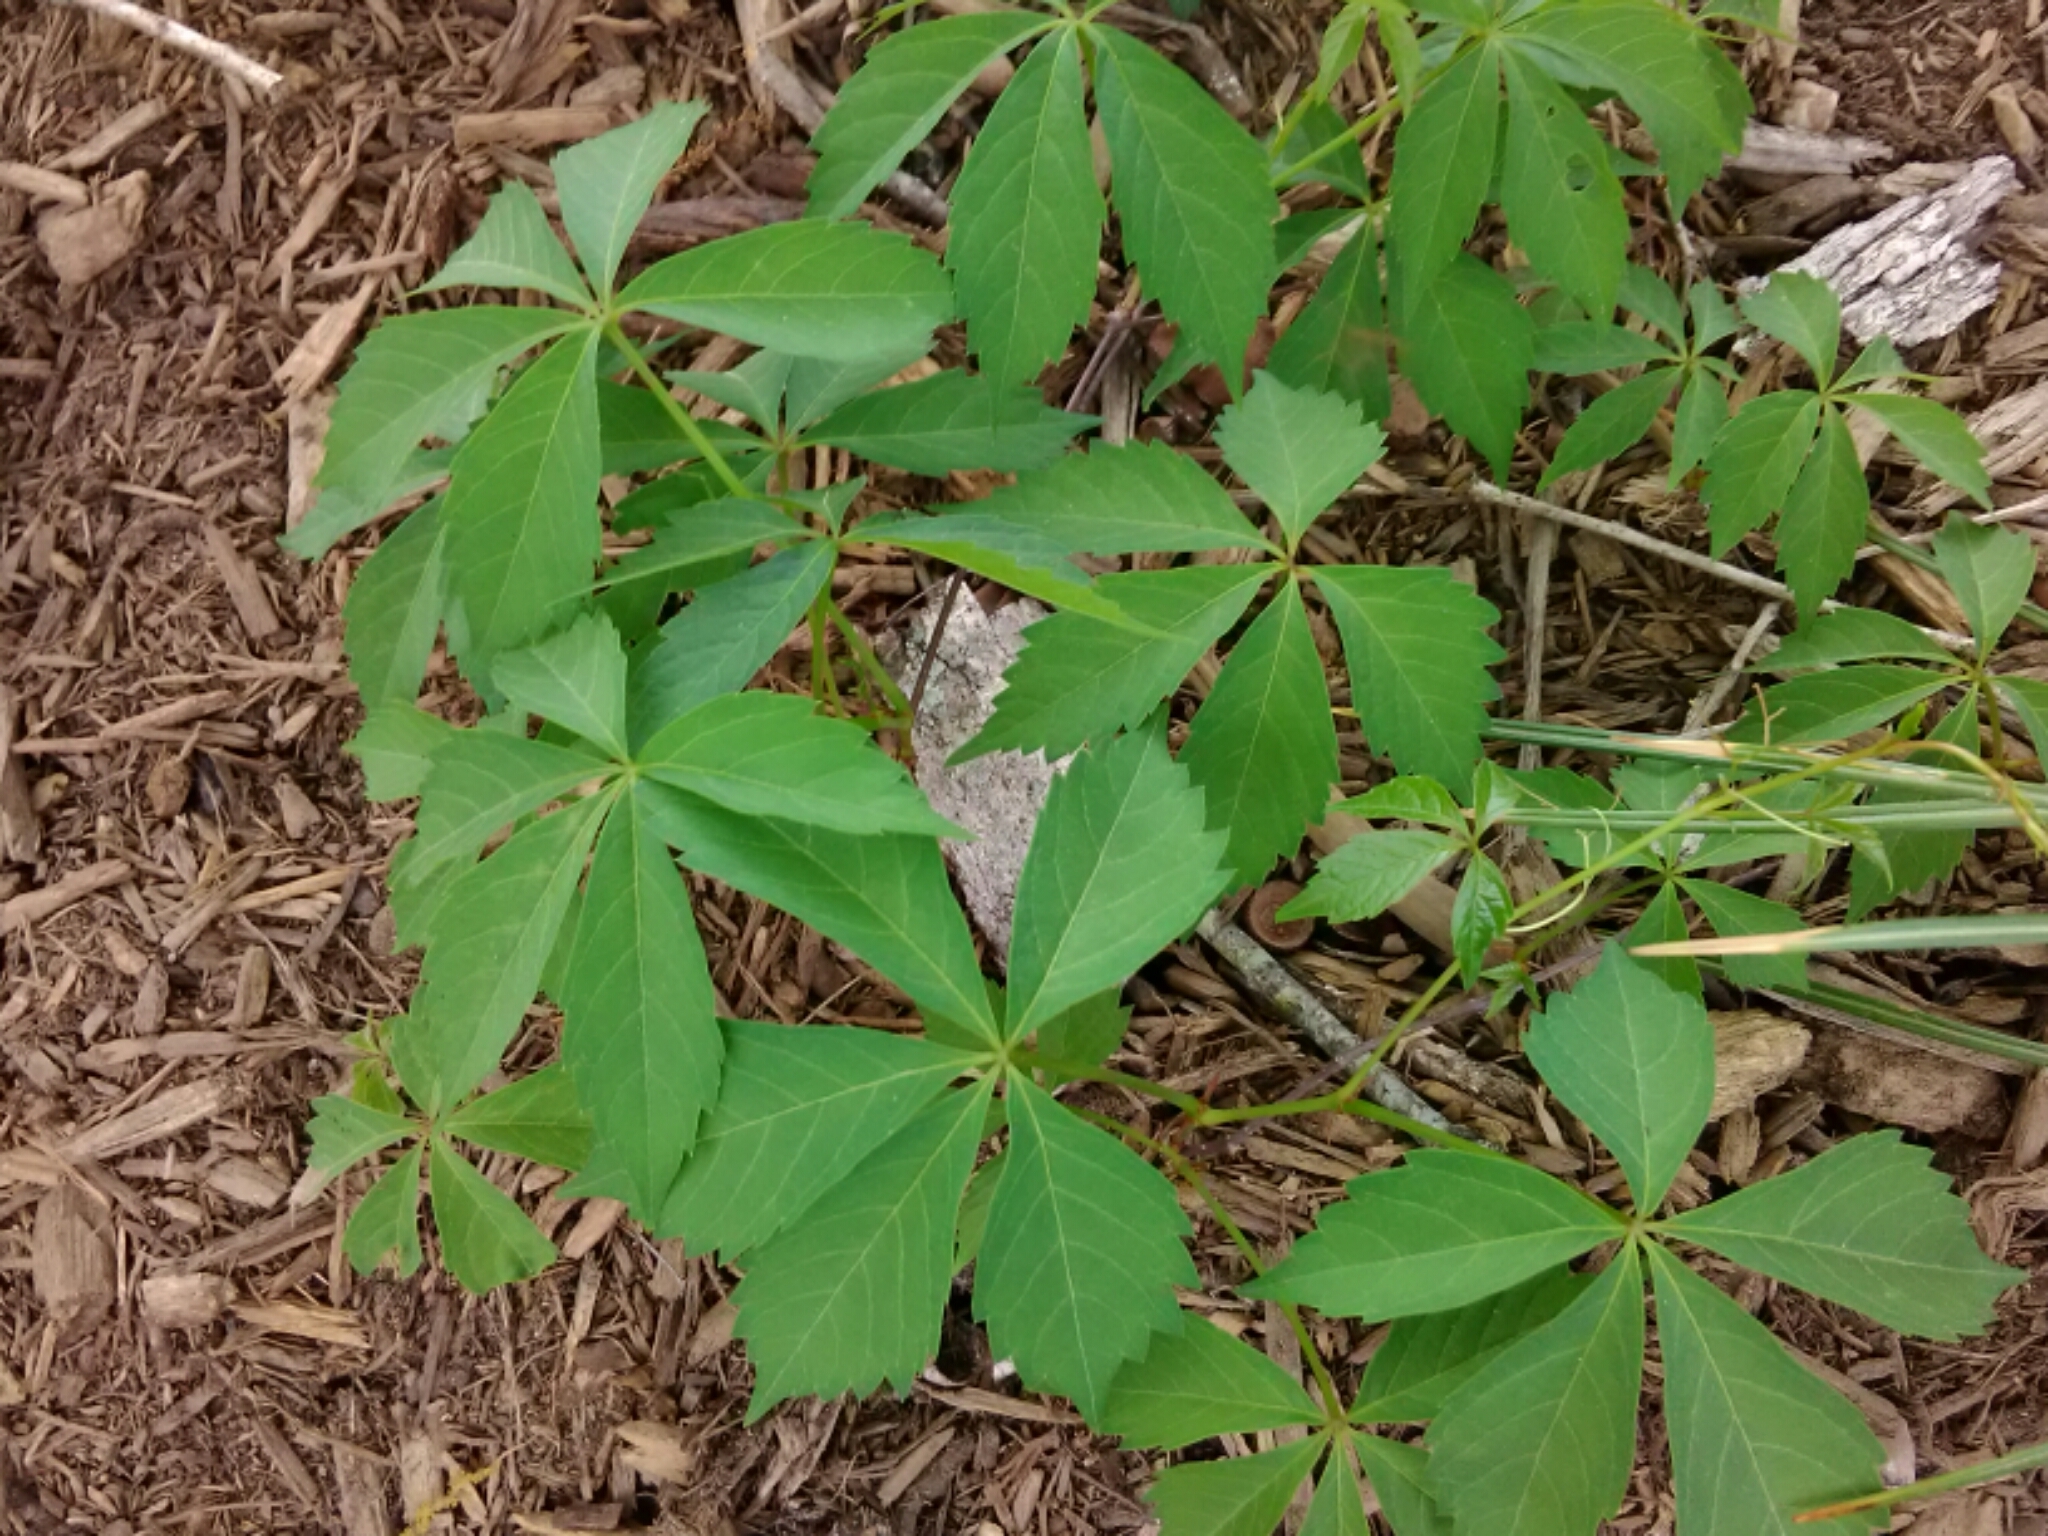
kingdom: Plantae
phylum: Tracheophyta
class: Magnoliopsida
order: Vitales
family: Vitaceae
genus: Parthenocissus
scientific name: Parthenocissus quinquefolia
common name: Virginia-creeper
